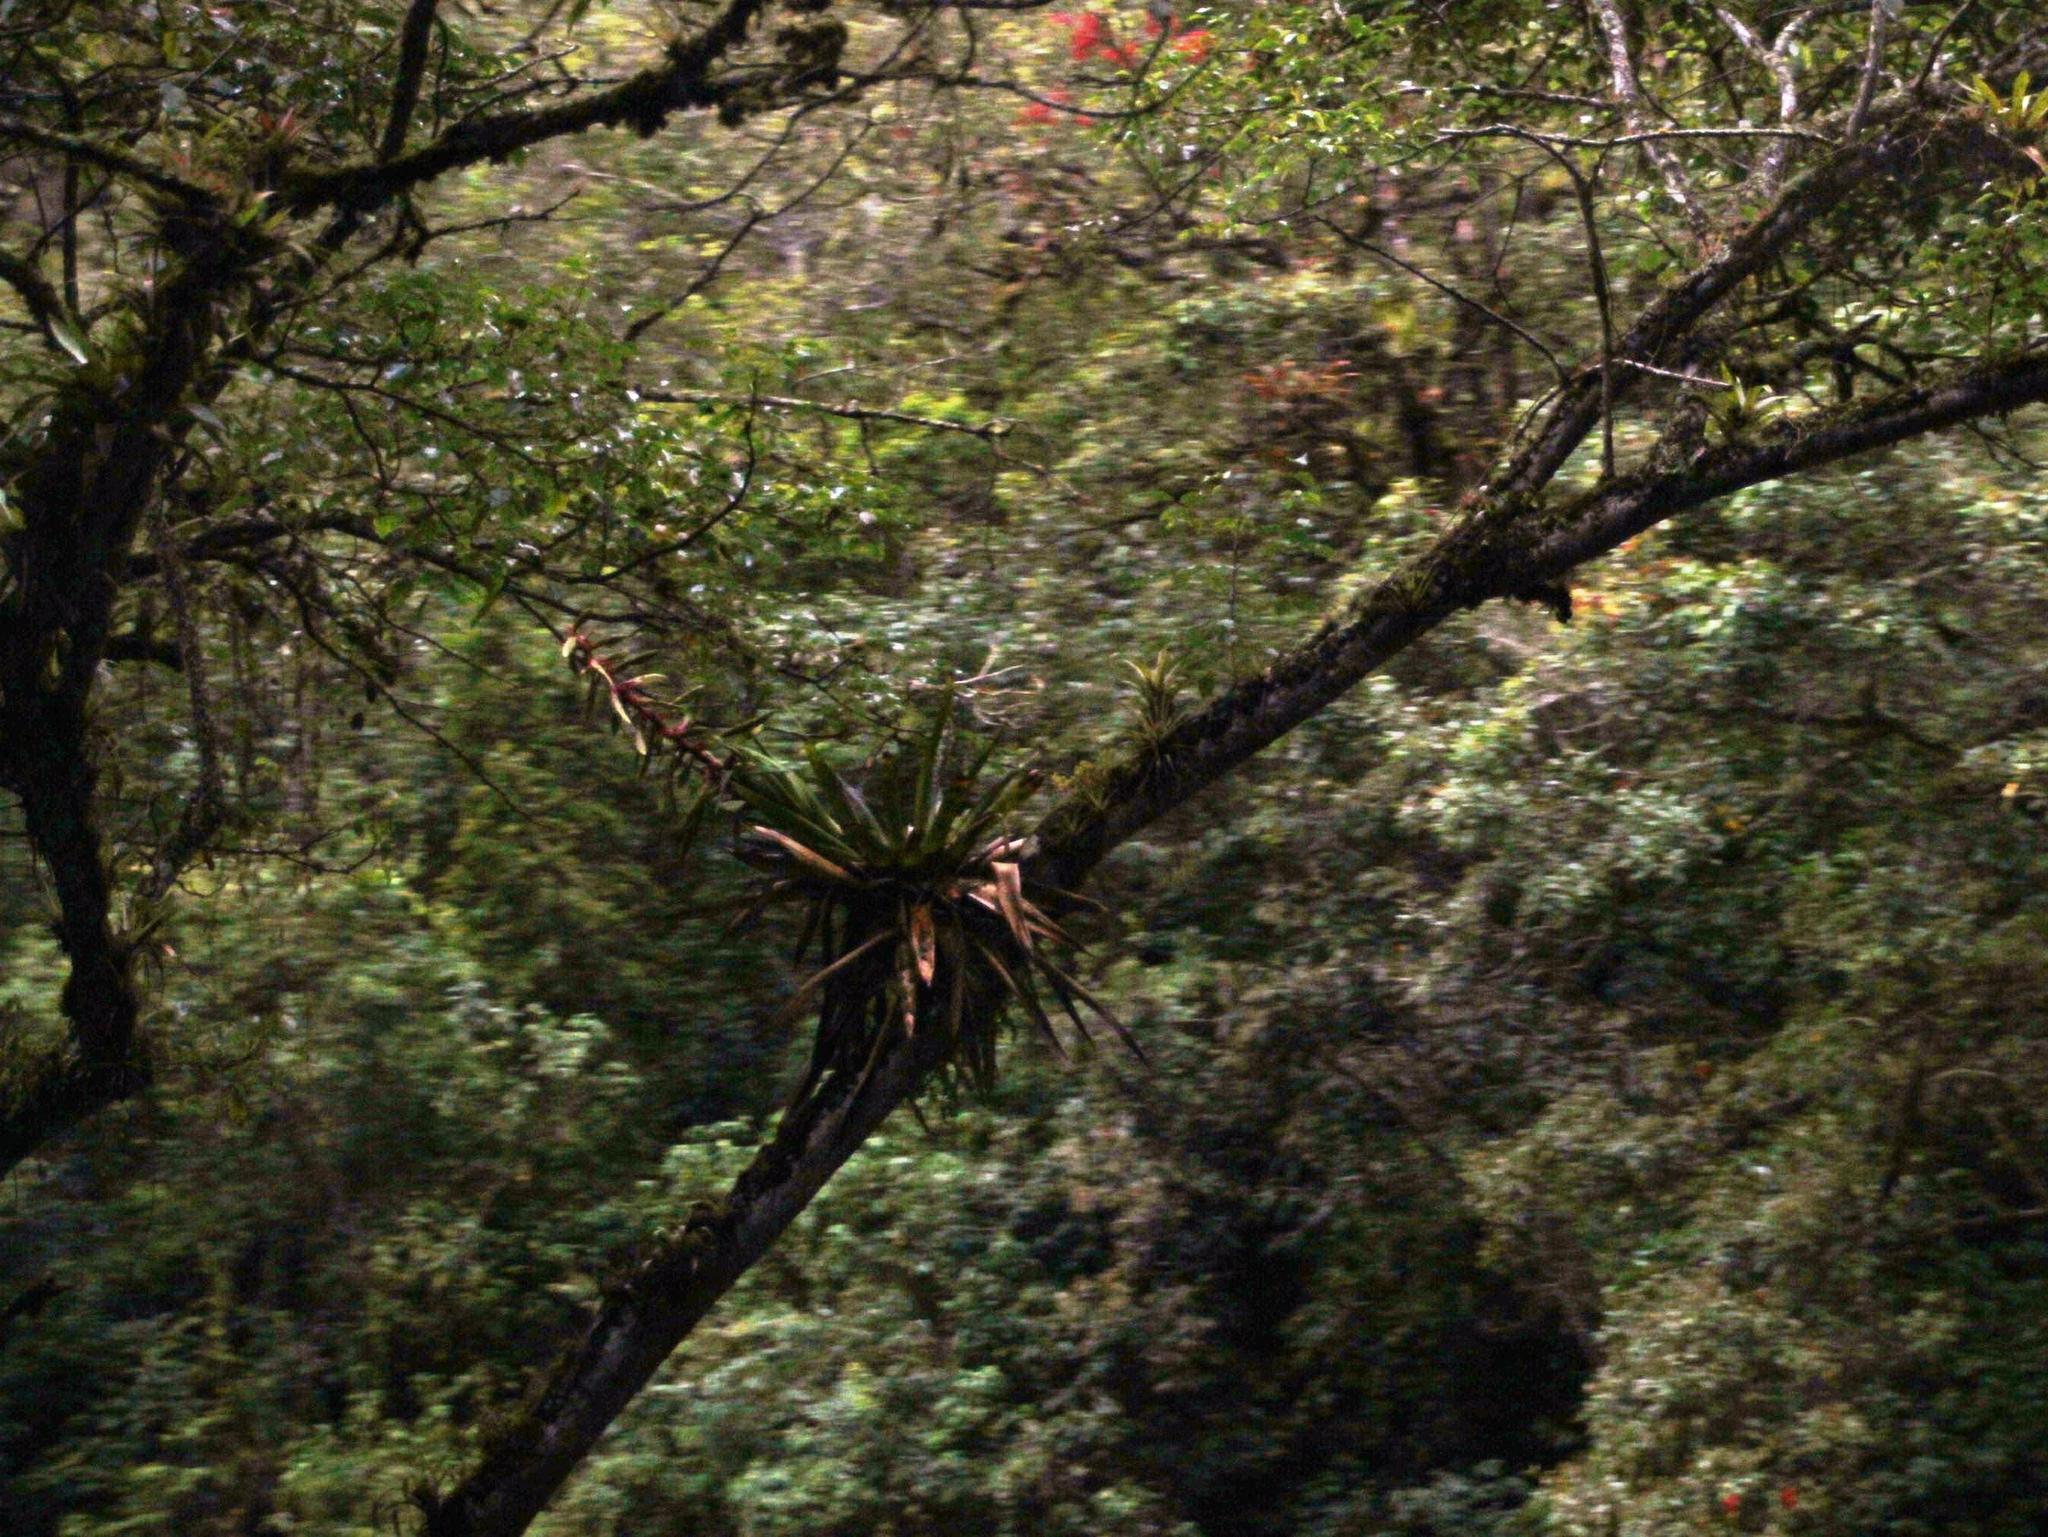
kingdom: Plantae
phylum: Tracheophyta
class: Liliopsida
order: Poales
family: Bromeliaceae
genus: Tillandsia
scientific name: Tillandsia fendleri
